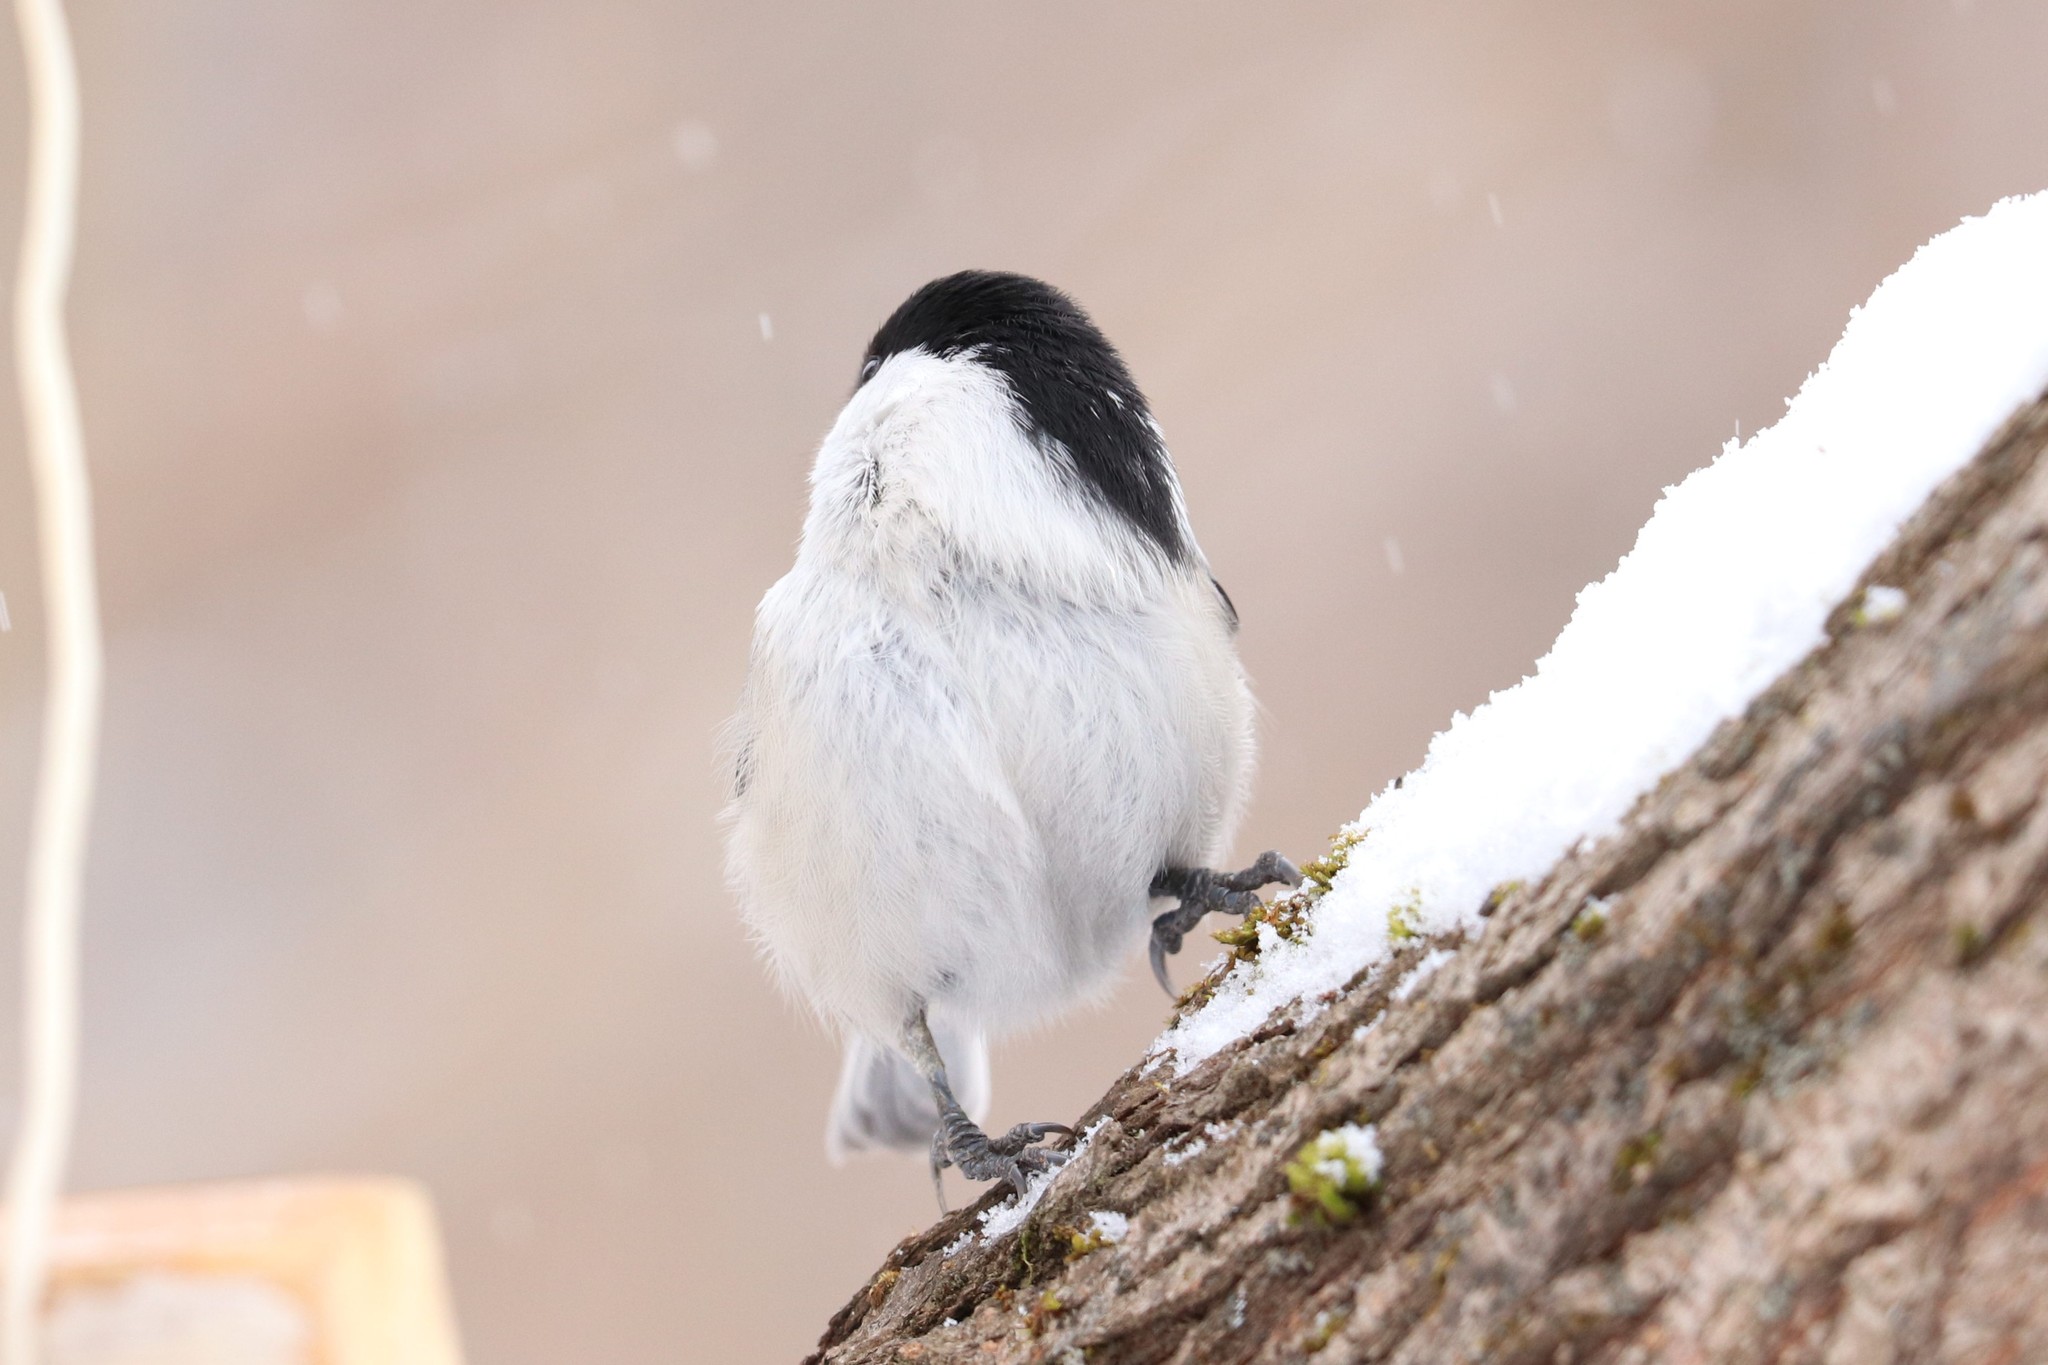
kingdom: Animalia
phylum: Chordata
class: Aves
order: Passeriformes
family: Paridae
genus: Poecile
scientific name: Poecile montanus
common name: Willow tit
